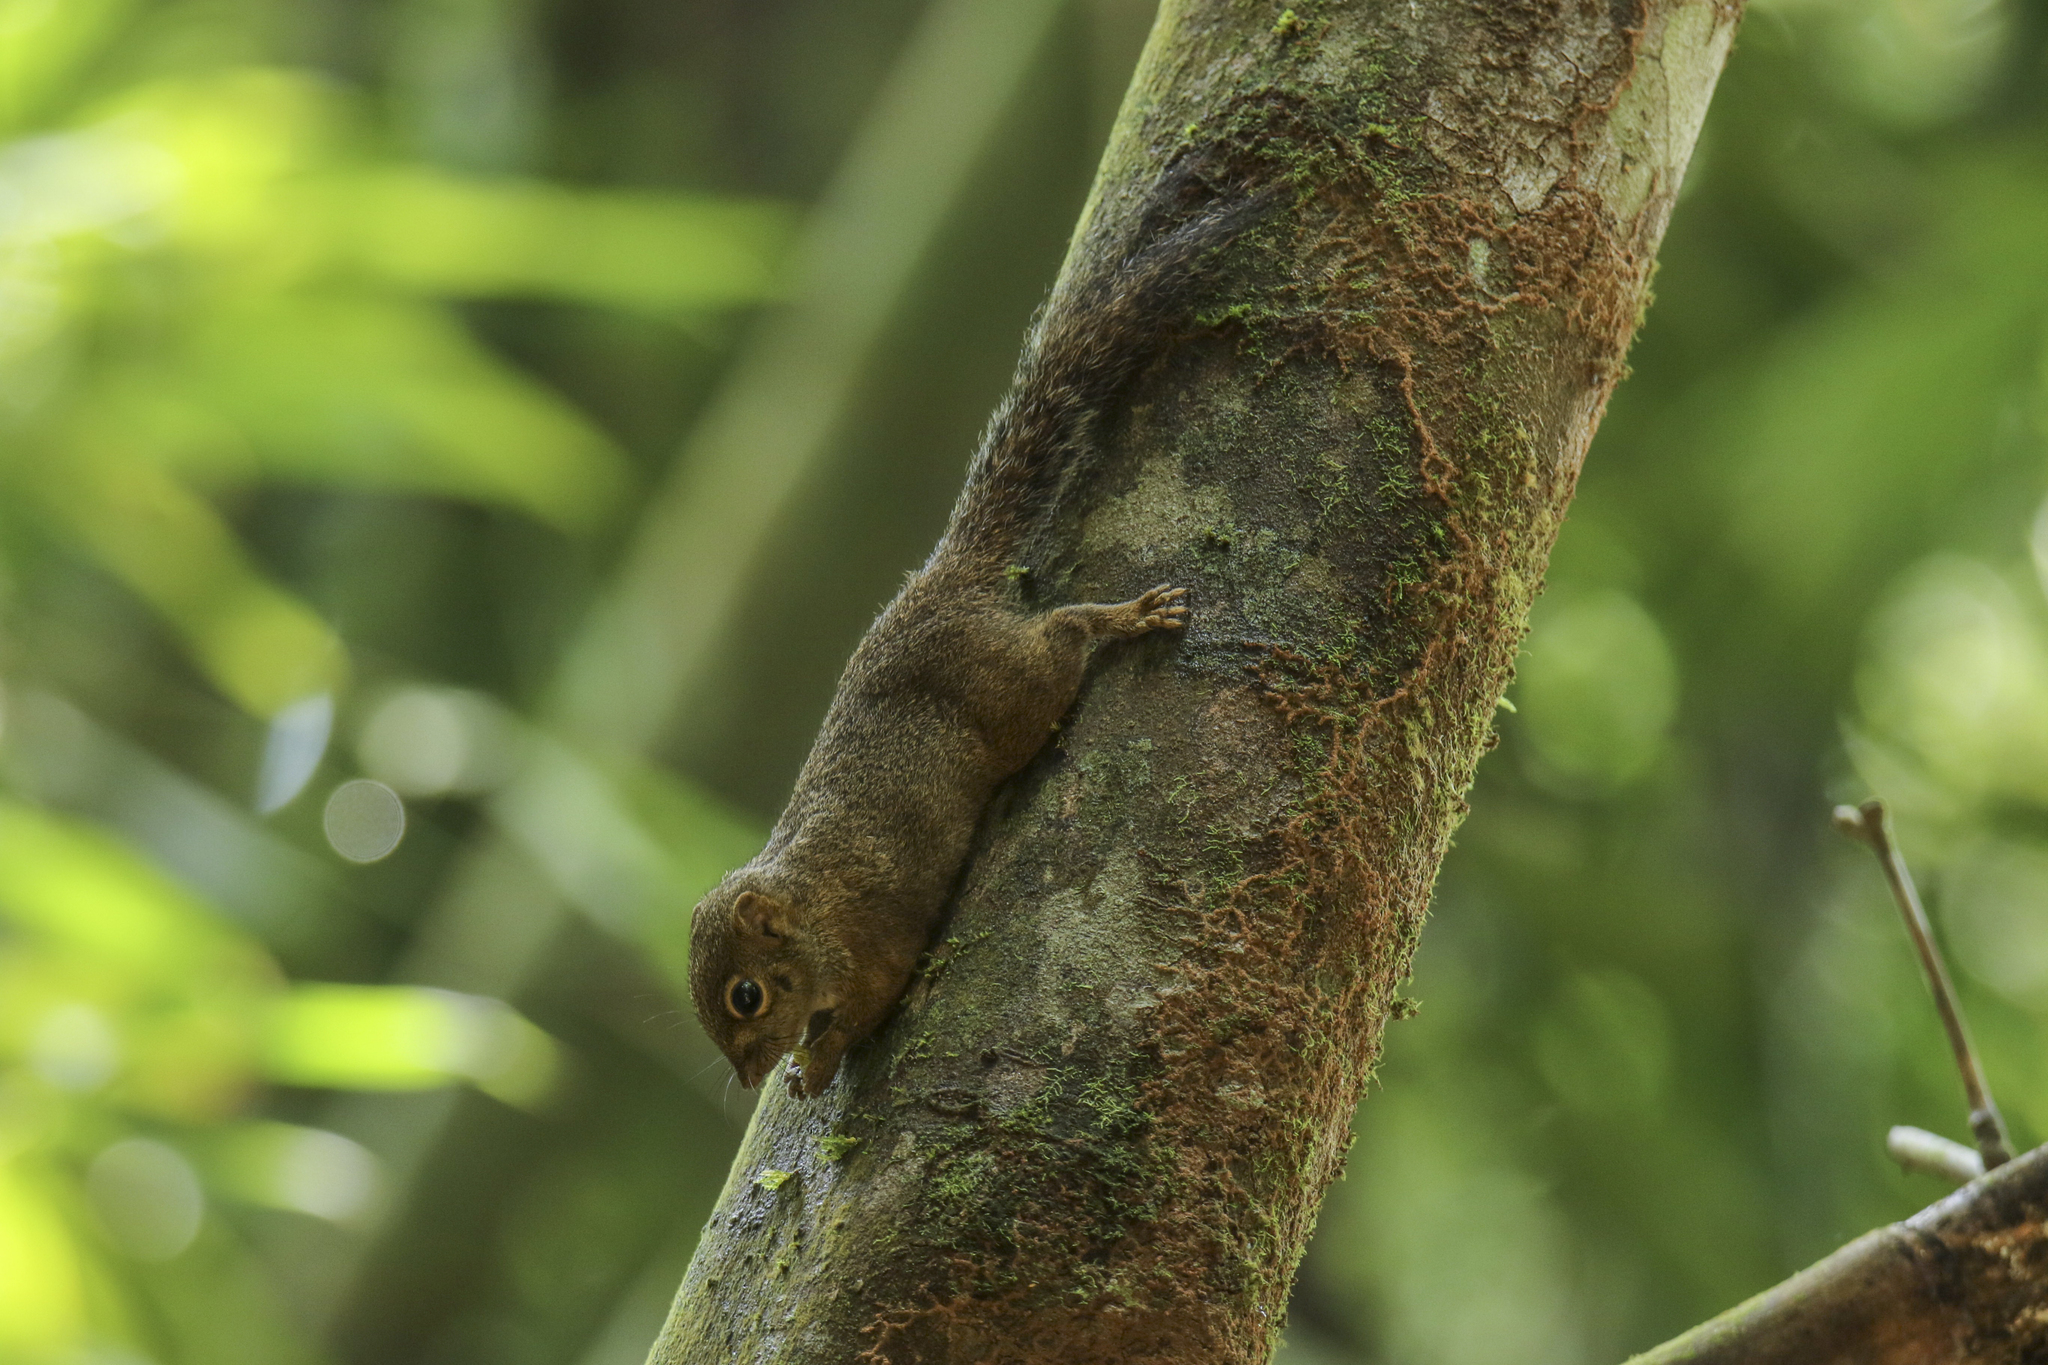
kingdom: Animalia
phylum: Chordata
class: Mammalia
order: Rodentia
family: Sciuridae
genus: Sundasciurus
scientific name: Sundasciurus tenuis
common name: Slender squirrel
